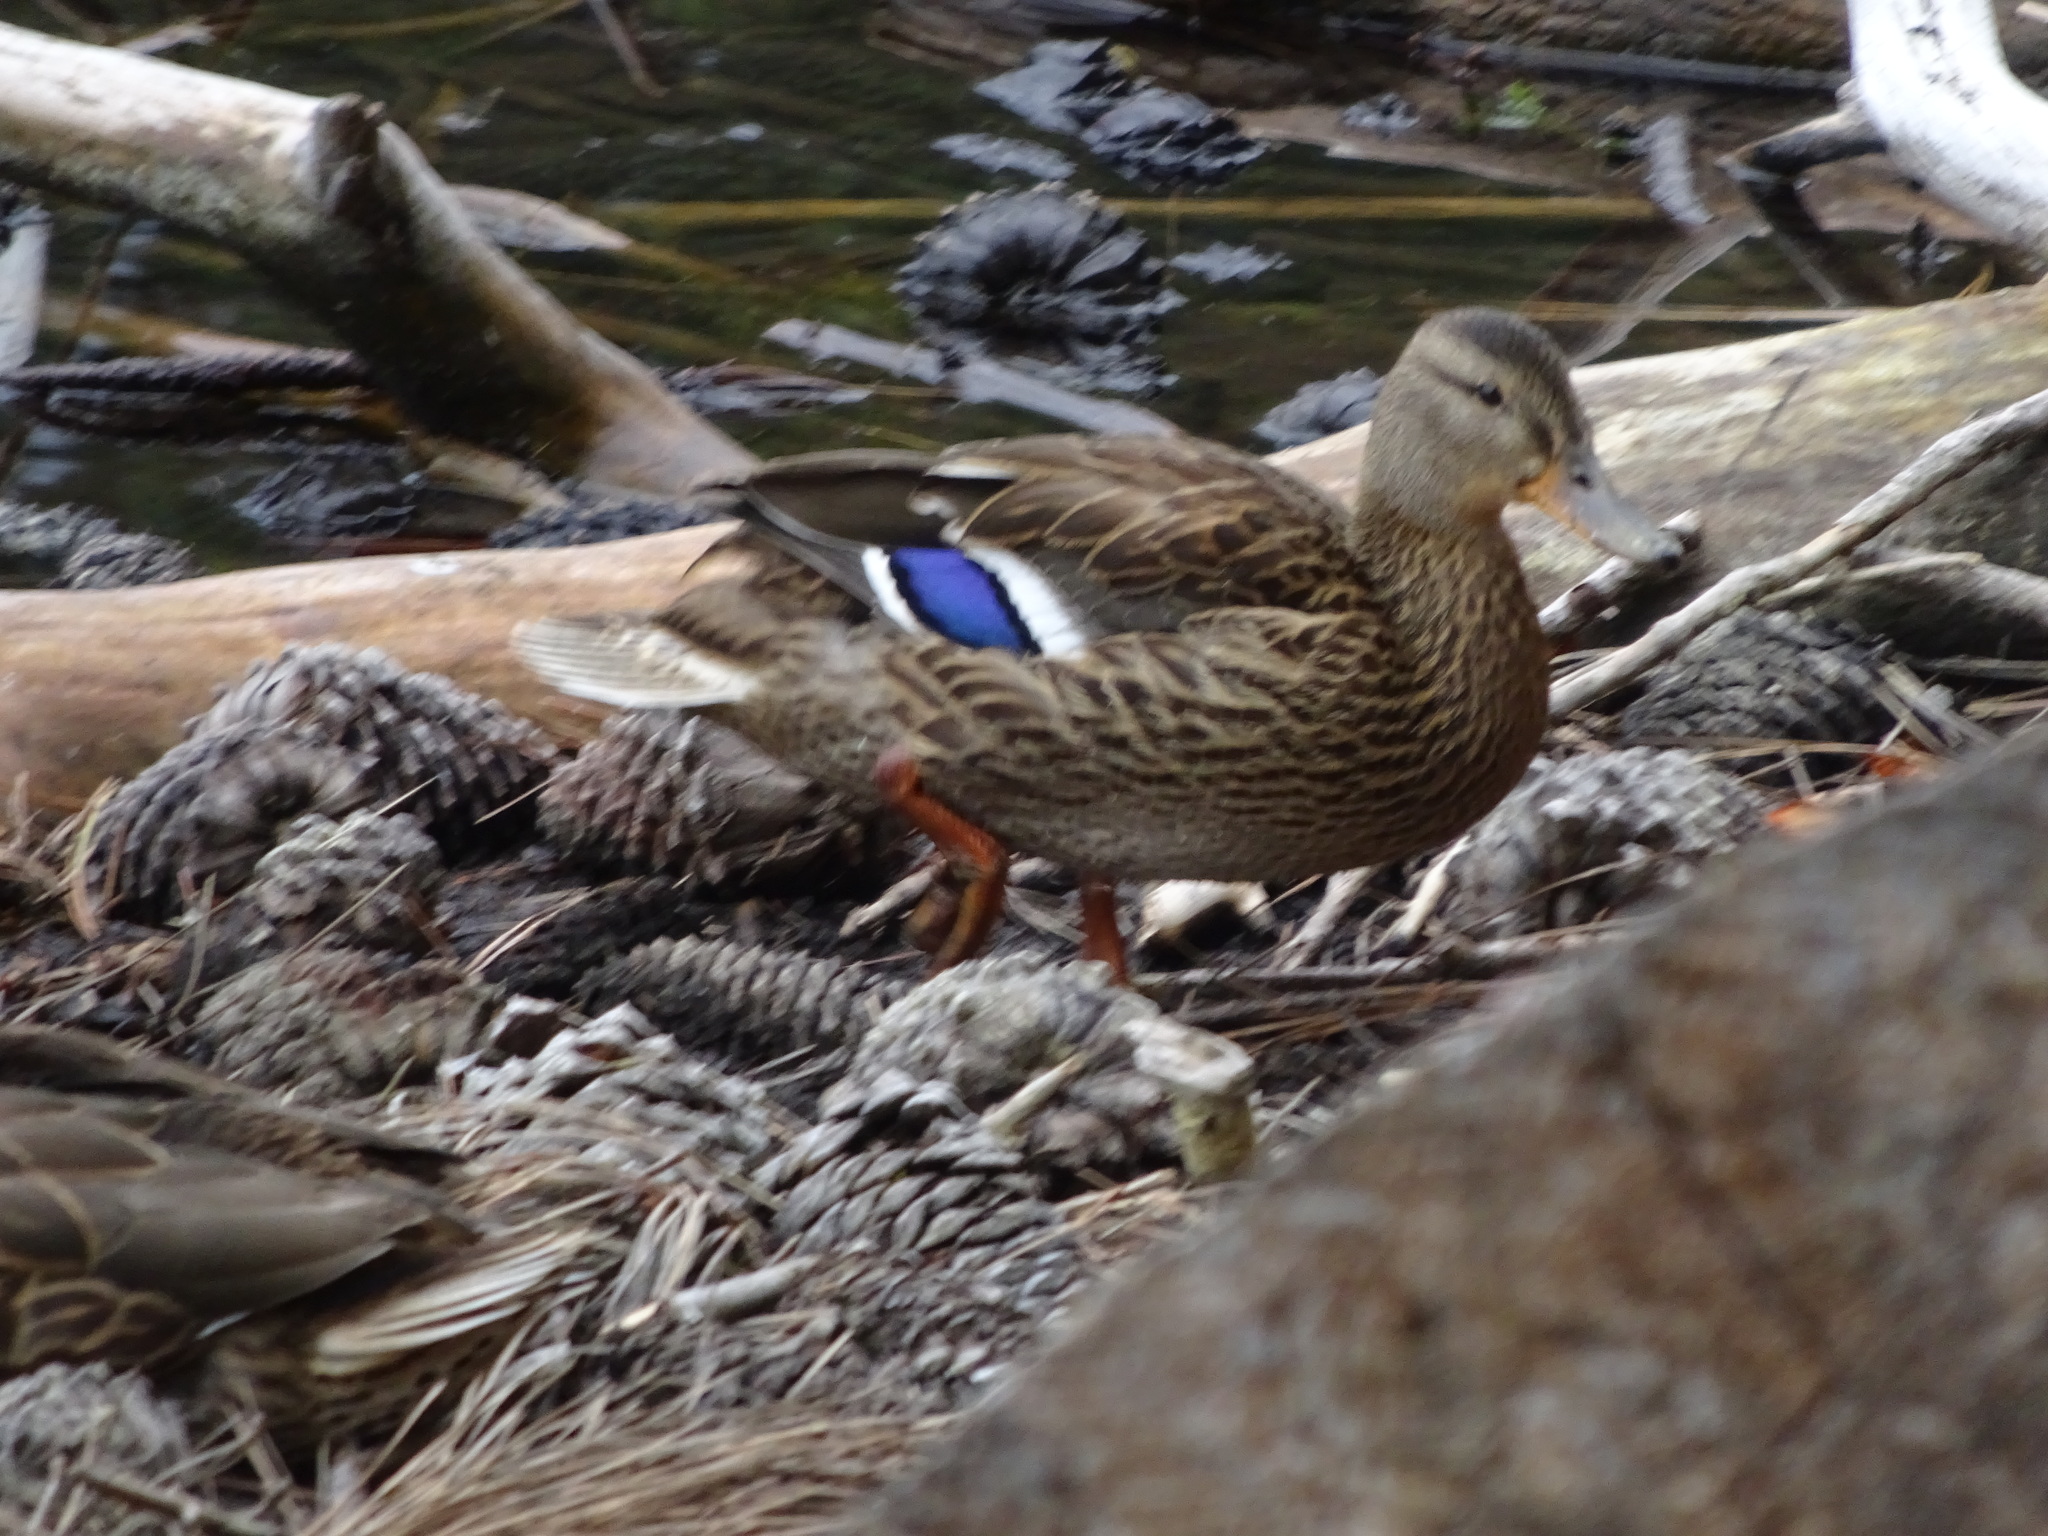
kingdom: Animalia
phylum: Chordata
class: Aves
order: Anseriformes
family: Anatidae
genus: Anas
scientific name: Anas platyrhynchos
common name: Mallard
